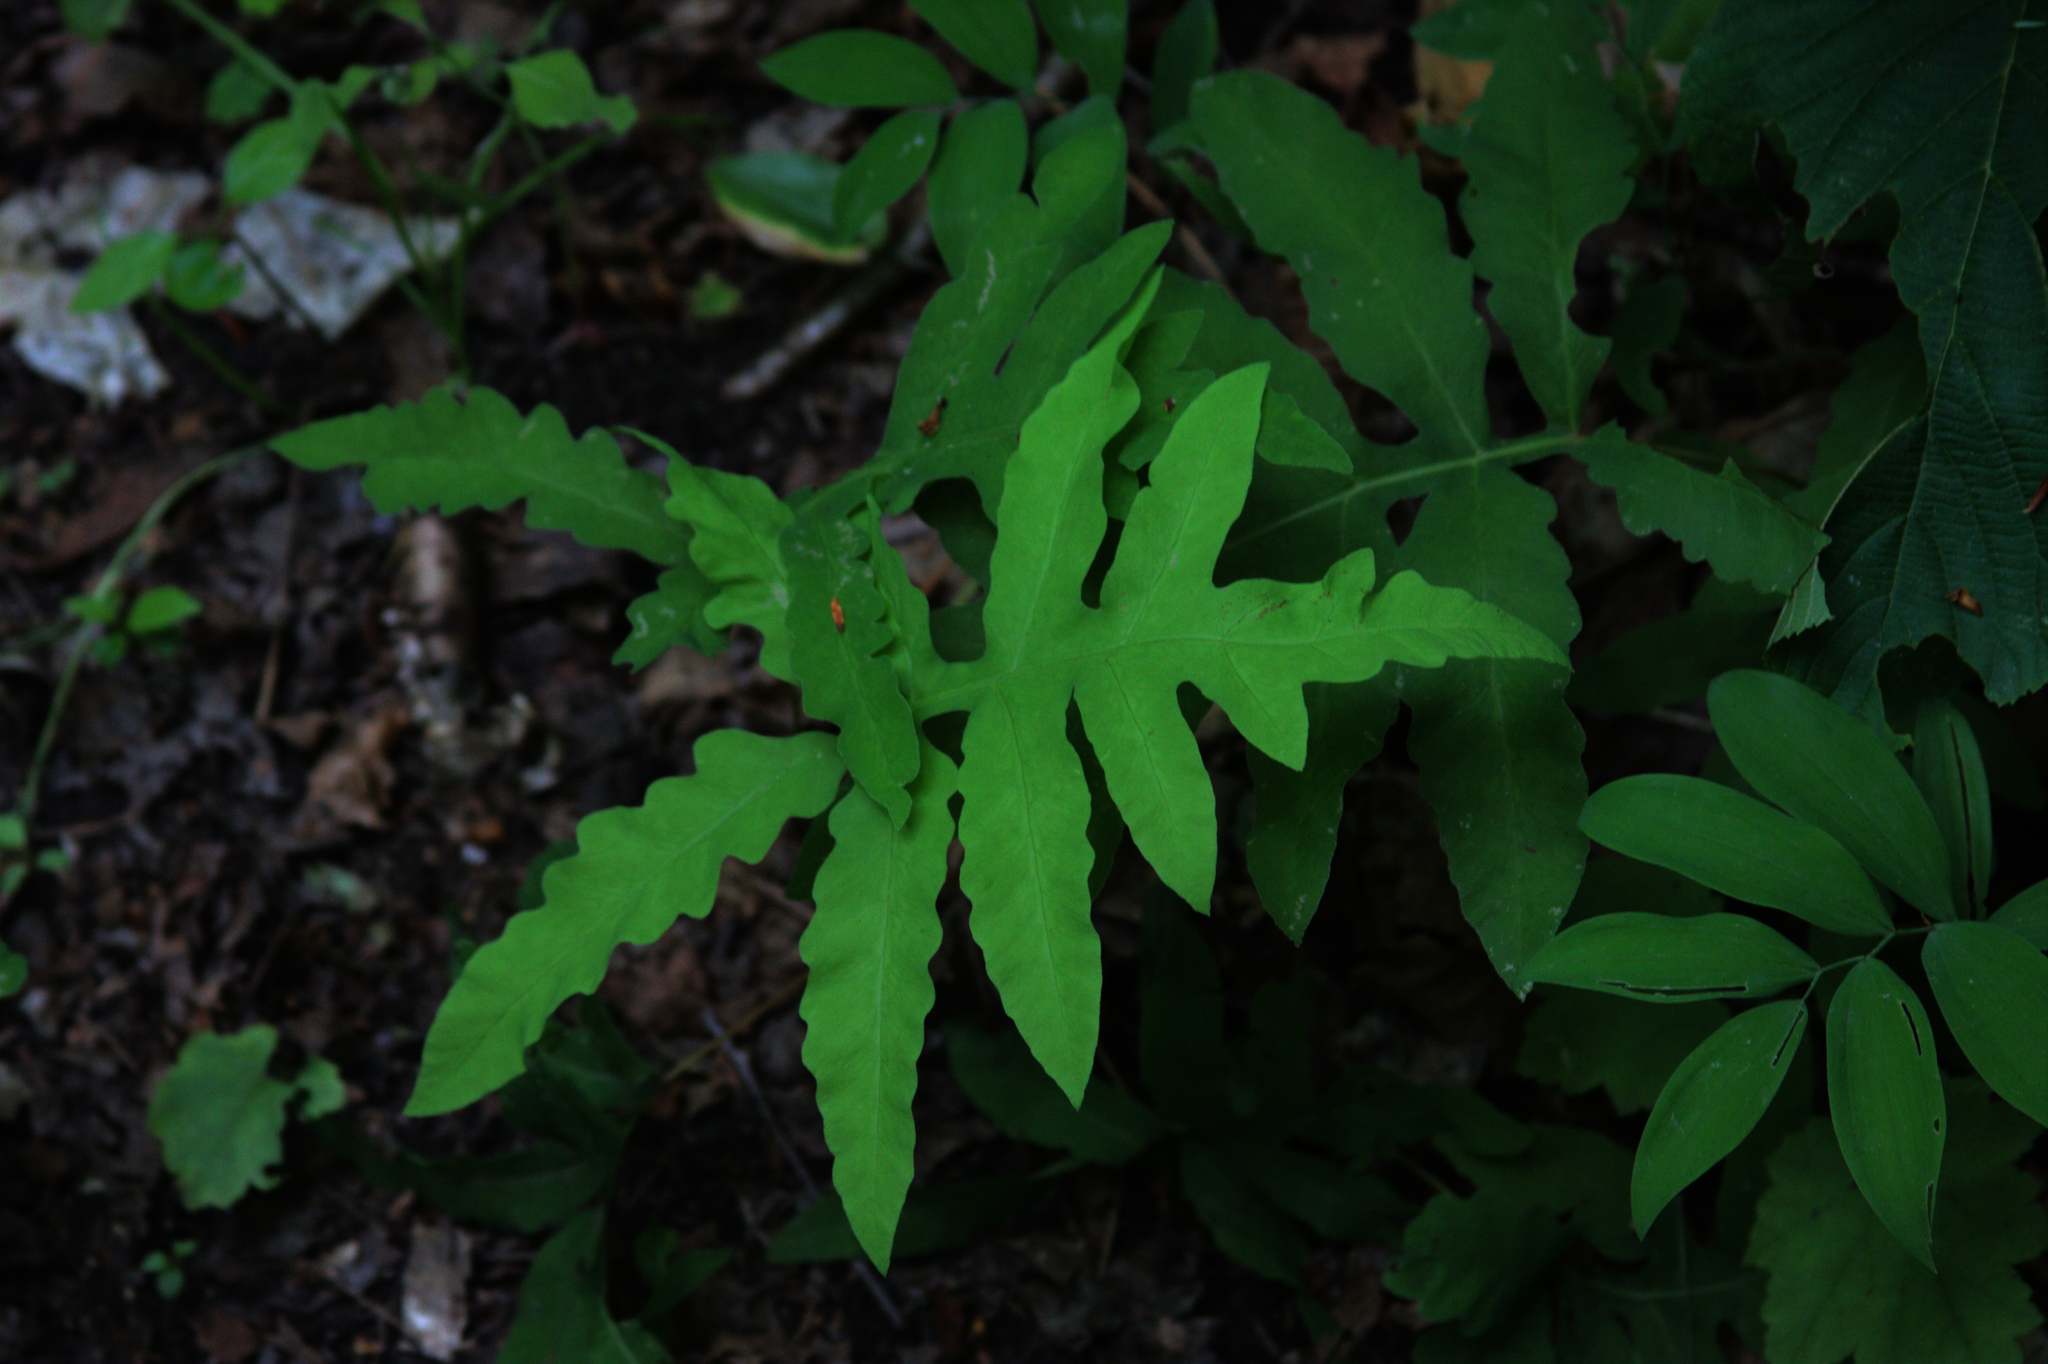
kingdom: Plantae
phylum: Tracheophyta
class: Polypodiopsida
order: Polypodiales
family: Onocleaceae
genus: Onoclea
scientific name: Onoclea sensibilis
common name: Sensitive fern
